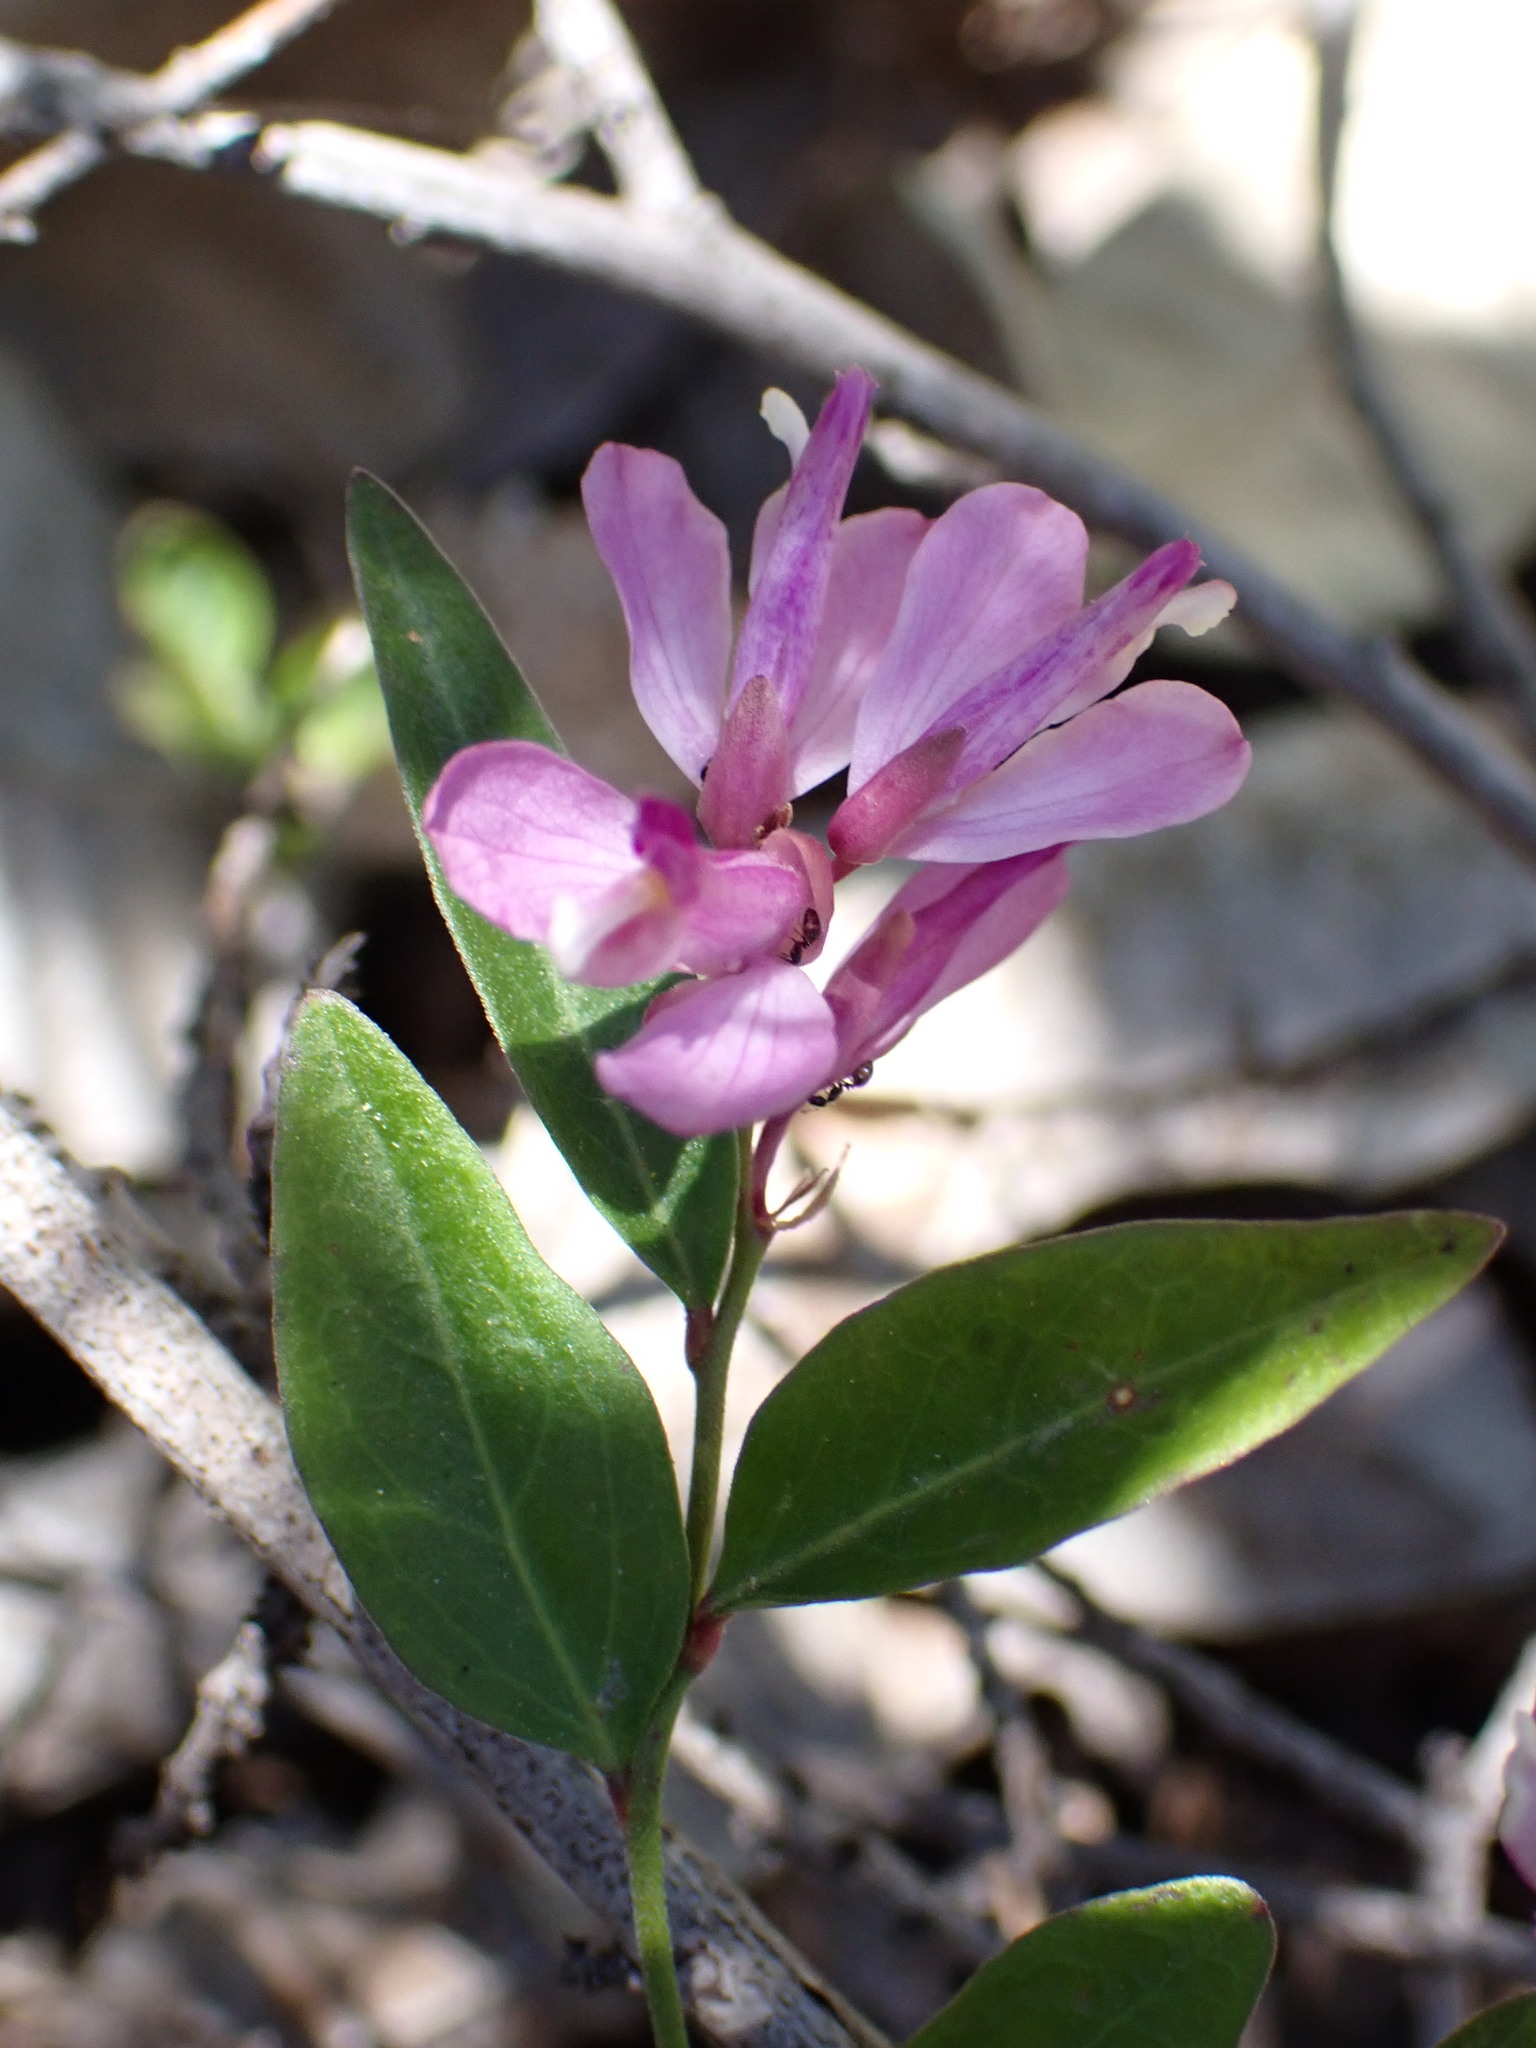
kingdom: Plantae
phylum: Tracheophyta
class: Magnoliopsida
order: Fabales
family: Polygalaceae
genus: Rhinotropis
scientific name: Rhinotropis californica
